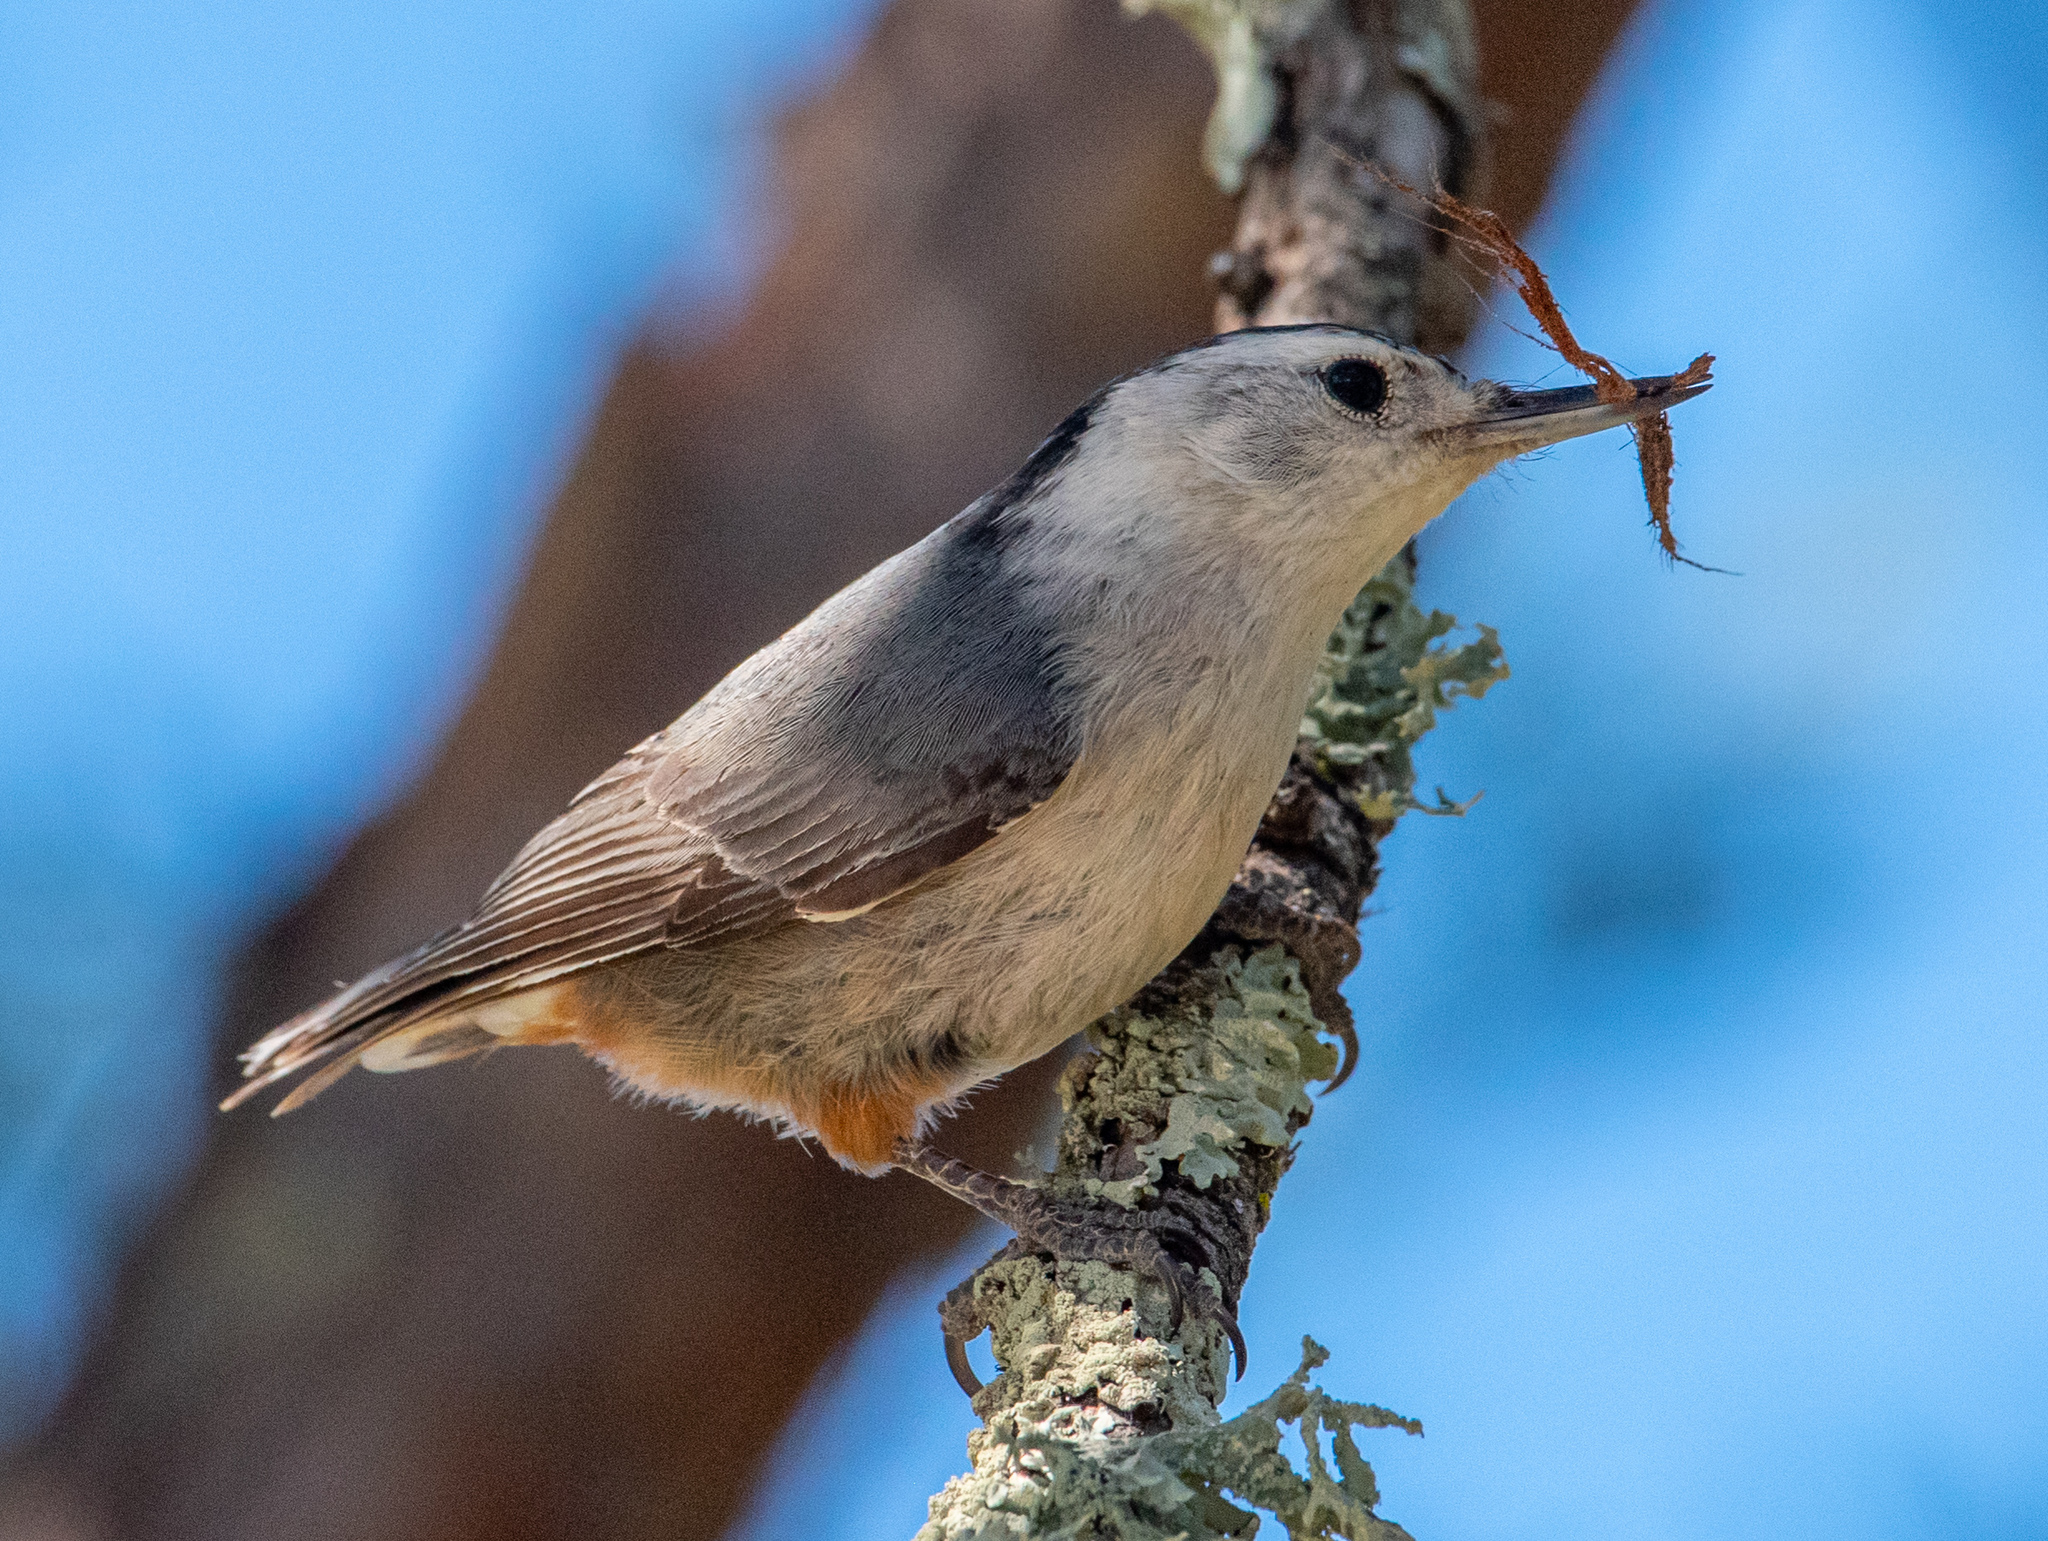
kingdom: Animalia
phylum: Chordata
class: Aves
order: Passeriformes
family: Sittidae
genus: Sitta
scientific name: Sitta carolinensis
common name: White-breasted nuthatch
